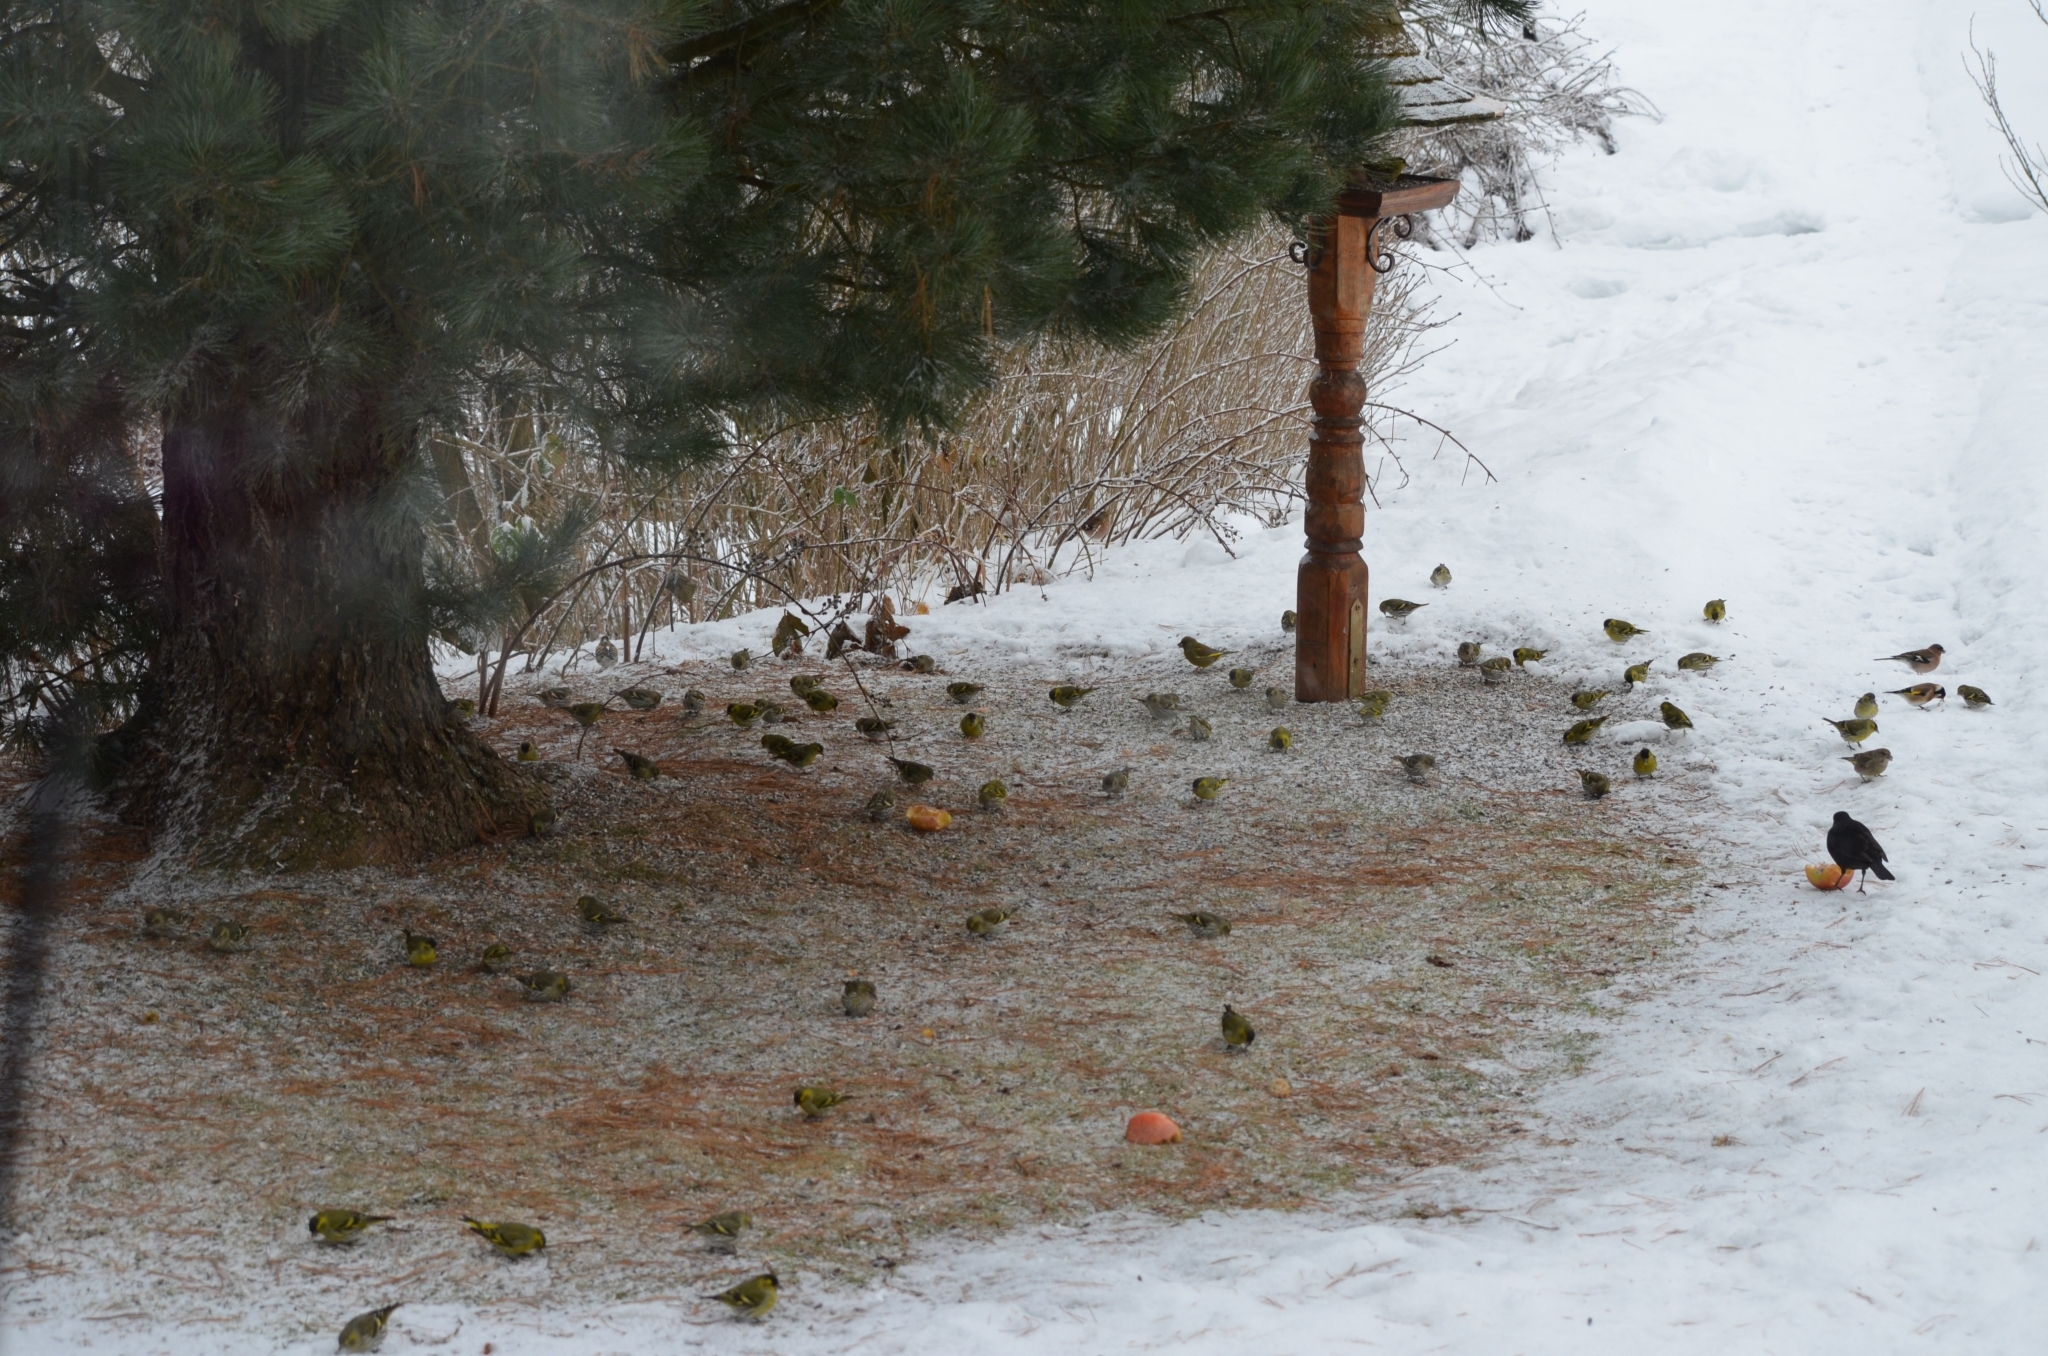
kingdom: Animalia
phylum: Chordata
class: Aves
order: Passeriformes
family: Fringillidae
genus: Spinus
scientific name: Spinus spinus
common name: Eurasian siskin
